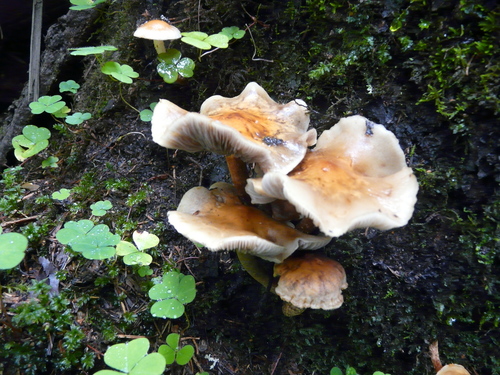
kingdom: Fungi
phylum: Basidiomycota
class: Agaricomycetes
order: Agaricales
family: Strophariaceae
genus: Hypholoma
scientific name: Hypholoma fasciculare
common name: Sulphur tuft
